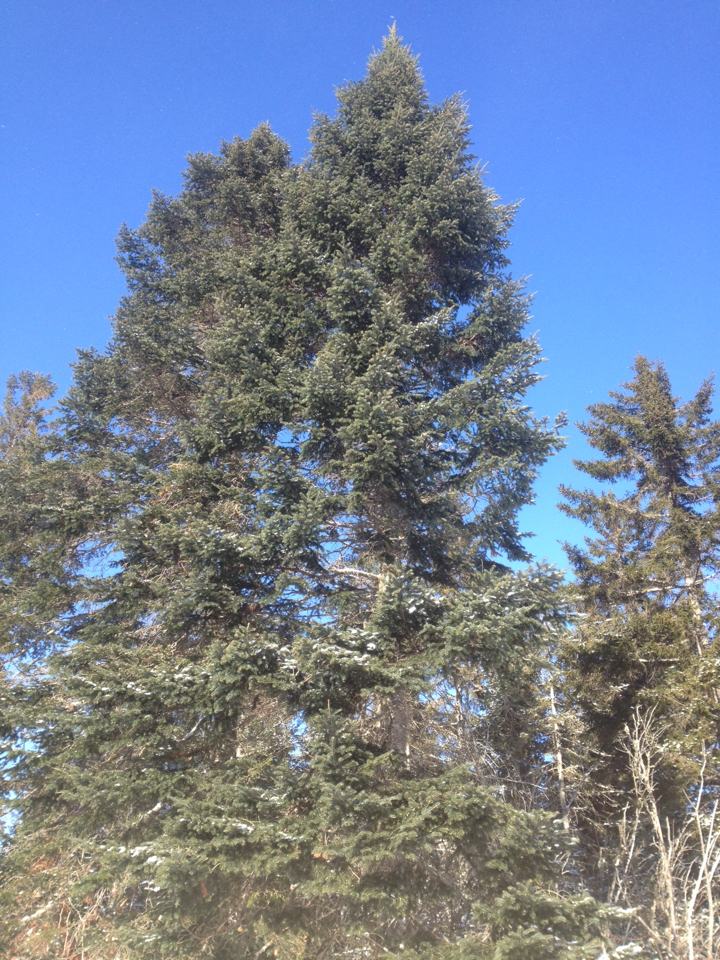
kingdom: Plantae
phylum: Tracheophyta
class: Pinopsida
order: Pinales
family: Pinaceae
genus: Abies
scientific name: Abies balsamea
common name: Balsam fir
